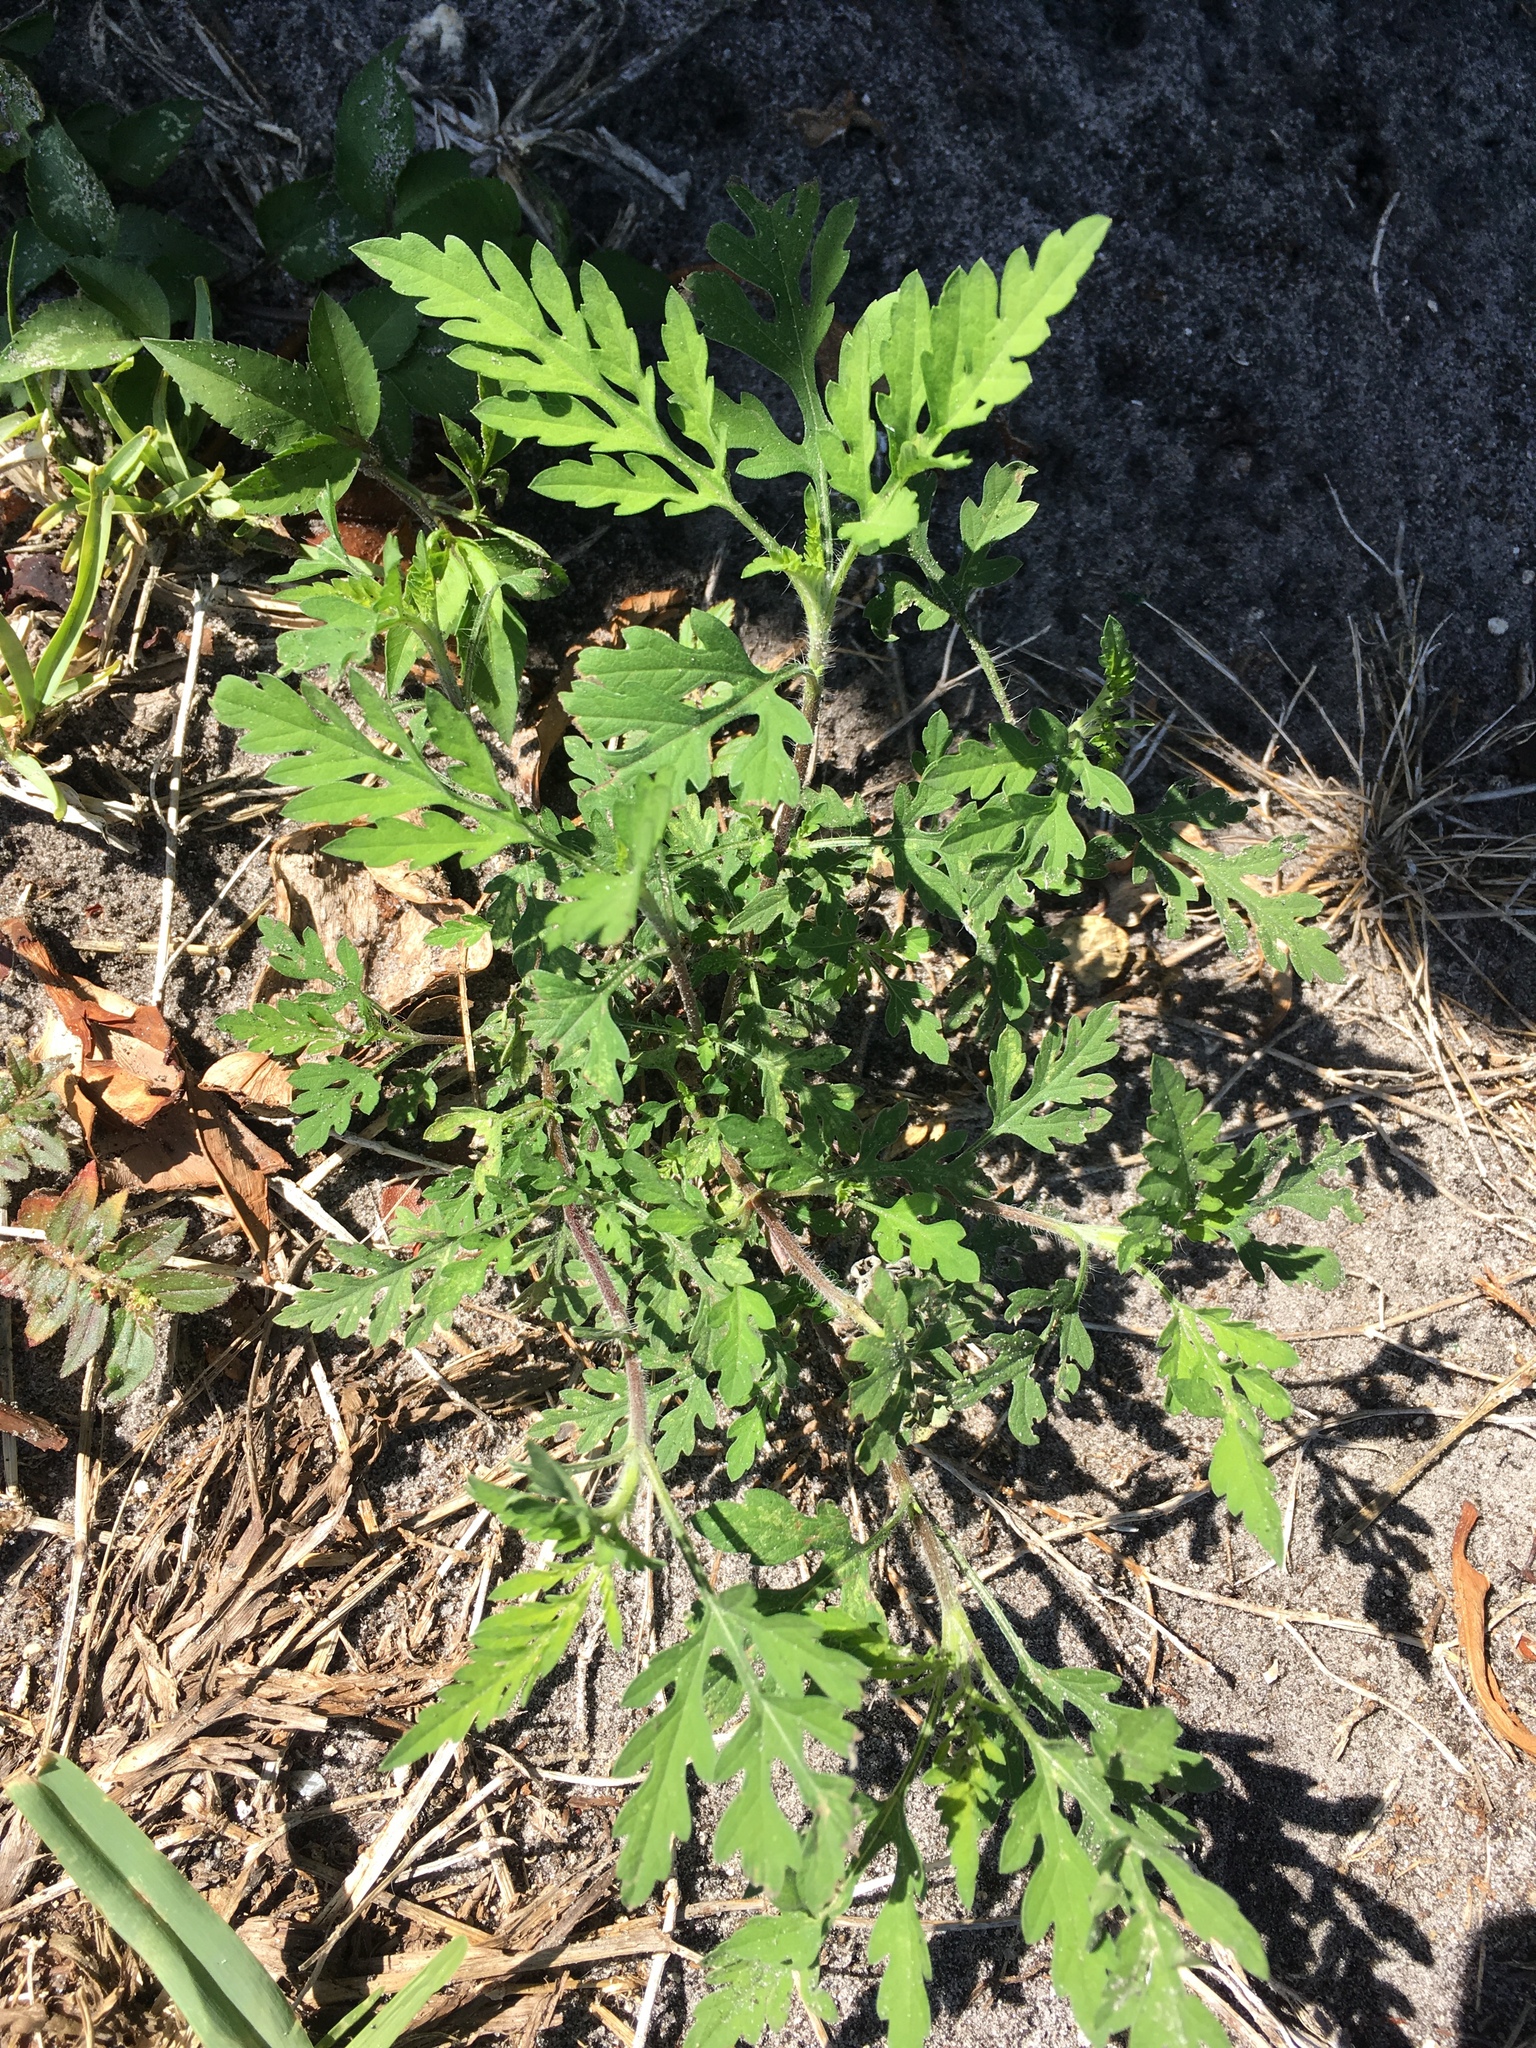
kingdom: Plantae
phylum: Tracheophyta
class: Magnoliopsida
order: Asterales
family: Asteraceae
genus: Ambrosia
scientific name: Ambrosia artemisiifolia
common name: Annual ragweed
